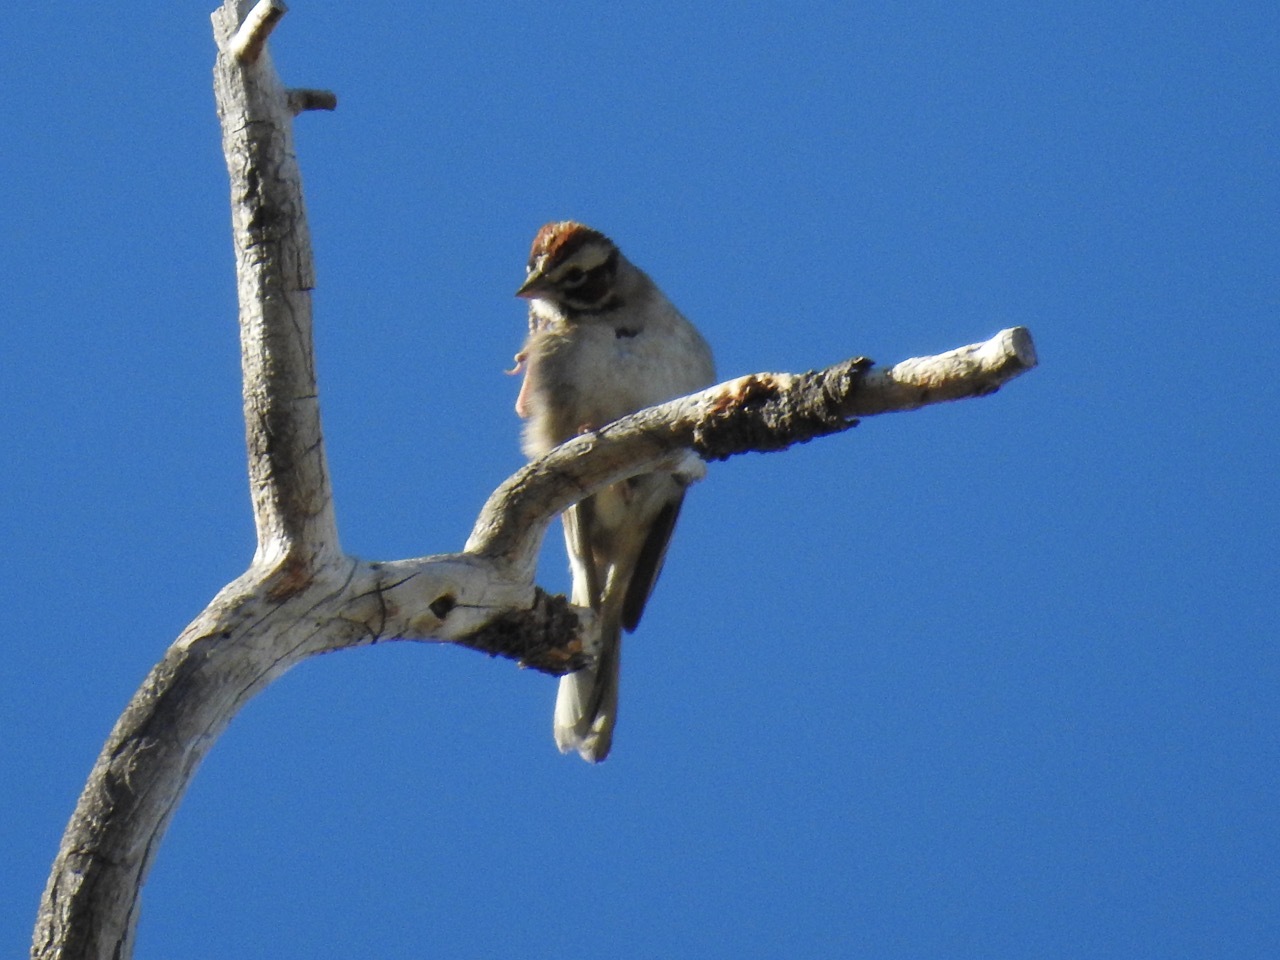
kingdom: Animalia
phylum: Chordata
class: Aves
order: Passeriformes
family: Passerellidae
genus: Chondestes
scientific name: Chondestes grammacus
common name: Lark sparrow
